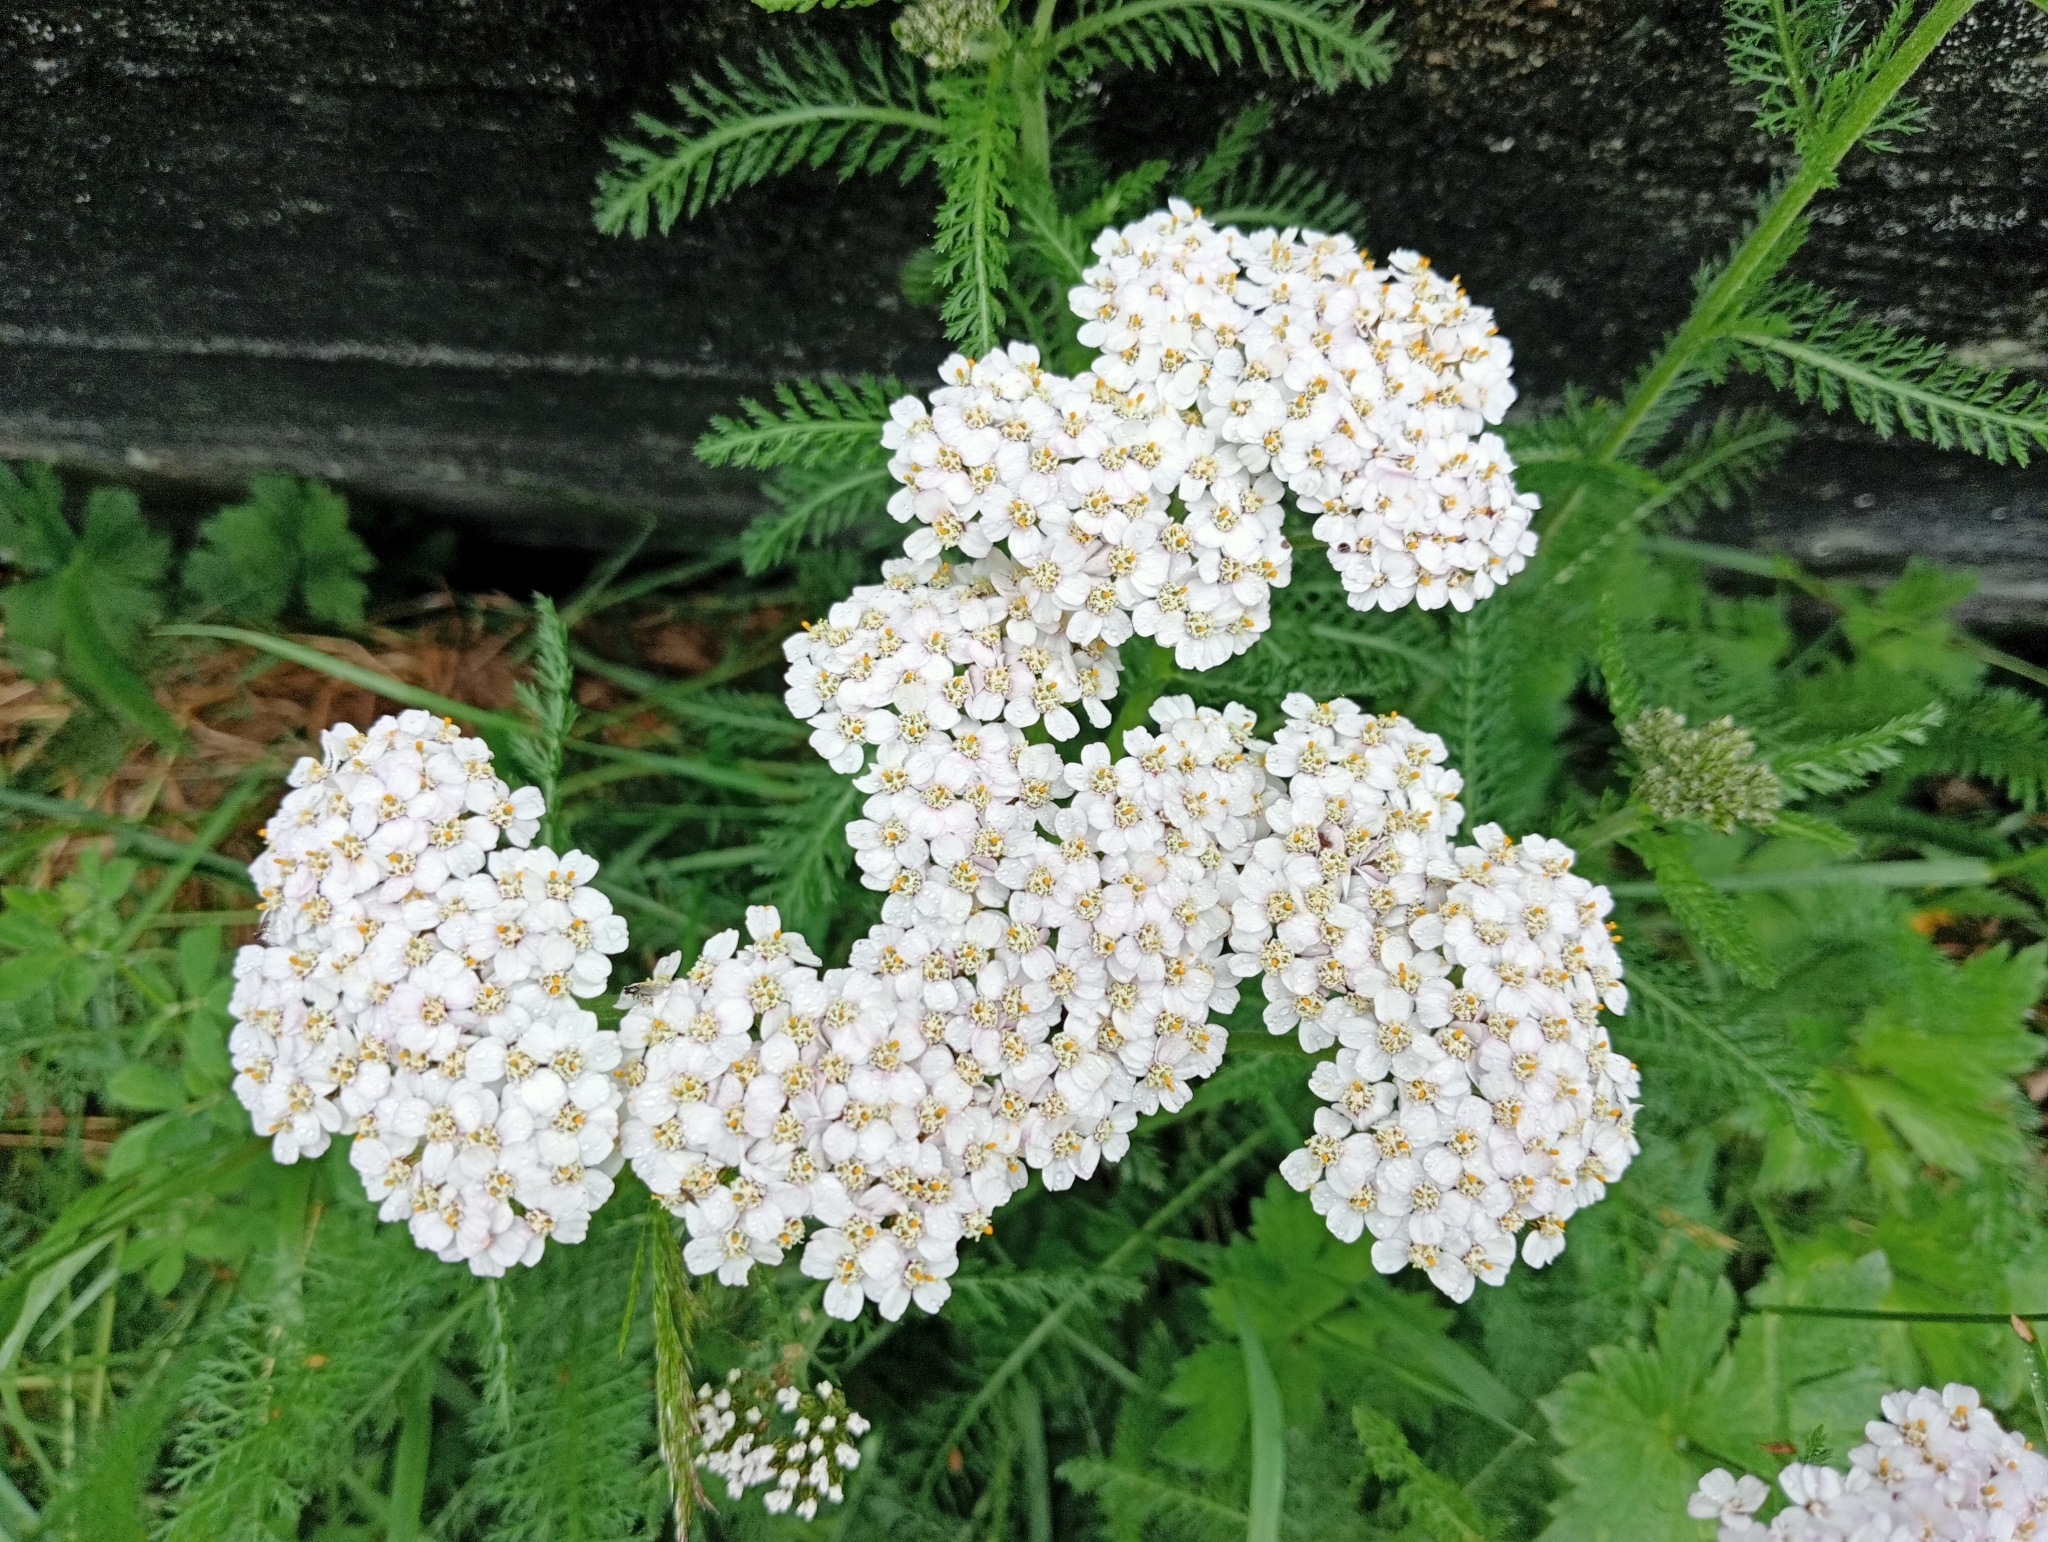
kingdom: Plantae
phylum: Tracheophyta
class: Magnoliopsida
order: Asterales
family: Asteraceae
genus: Achillea
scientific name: Achillea millefolium
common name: Yarrow
